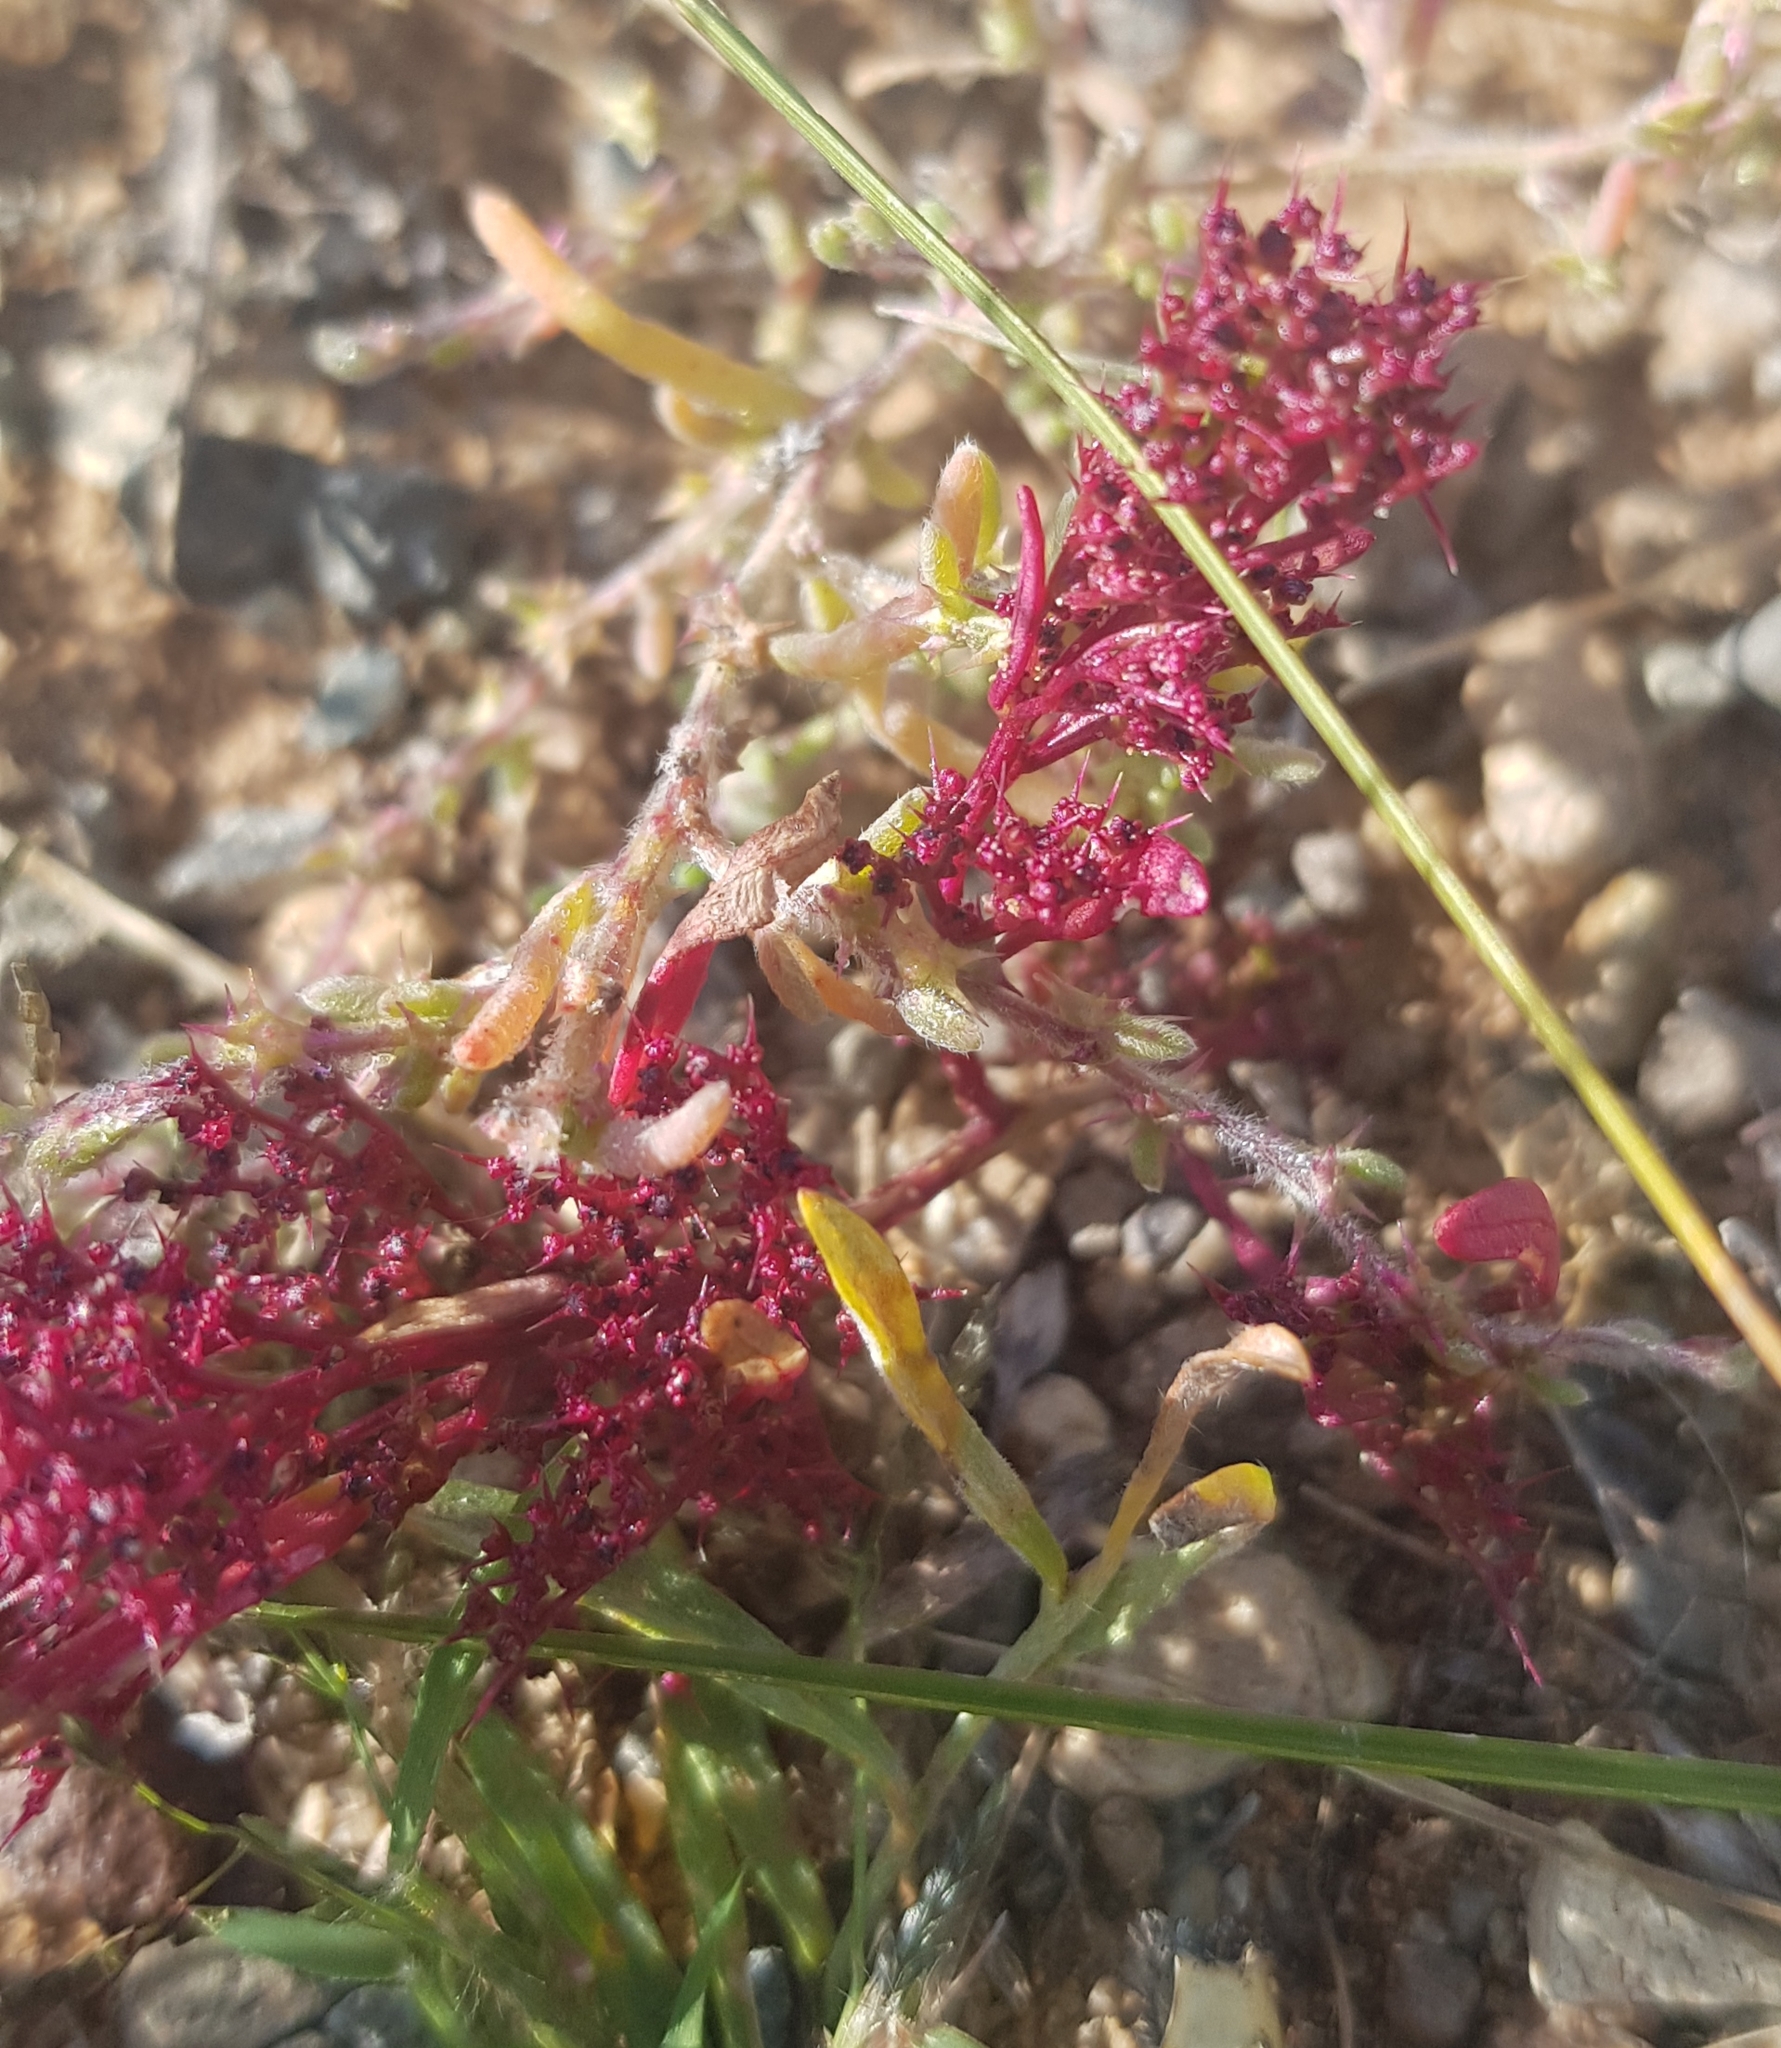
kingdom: Plantae
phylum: Tracheophyta
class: Magnoliopsida
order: Caryophyllales
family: Amaranthaceae
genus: Teloxys
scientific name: Teloxys aristata
